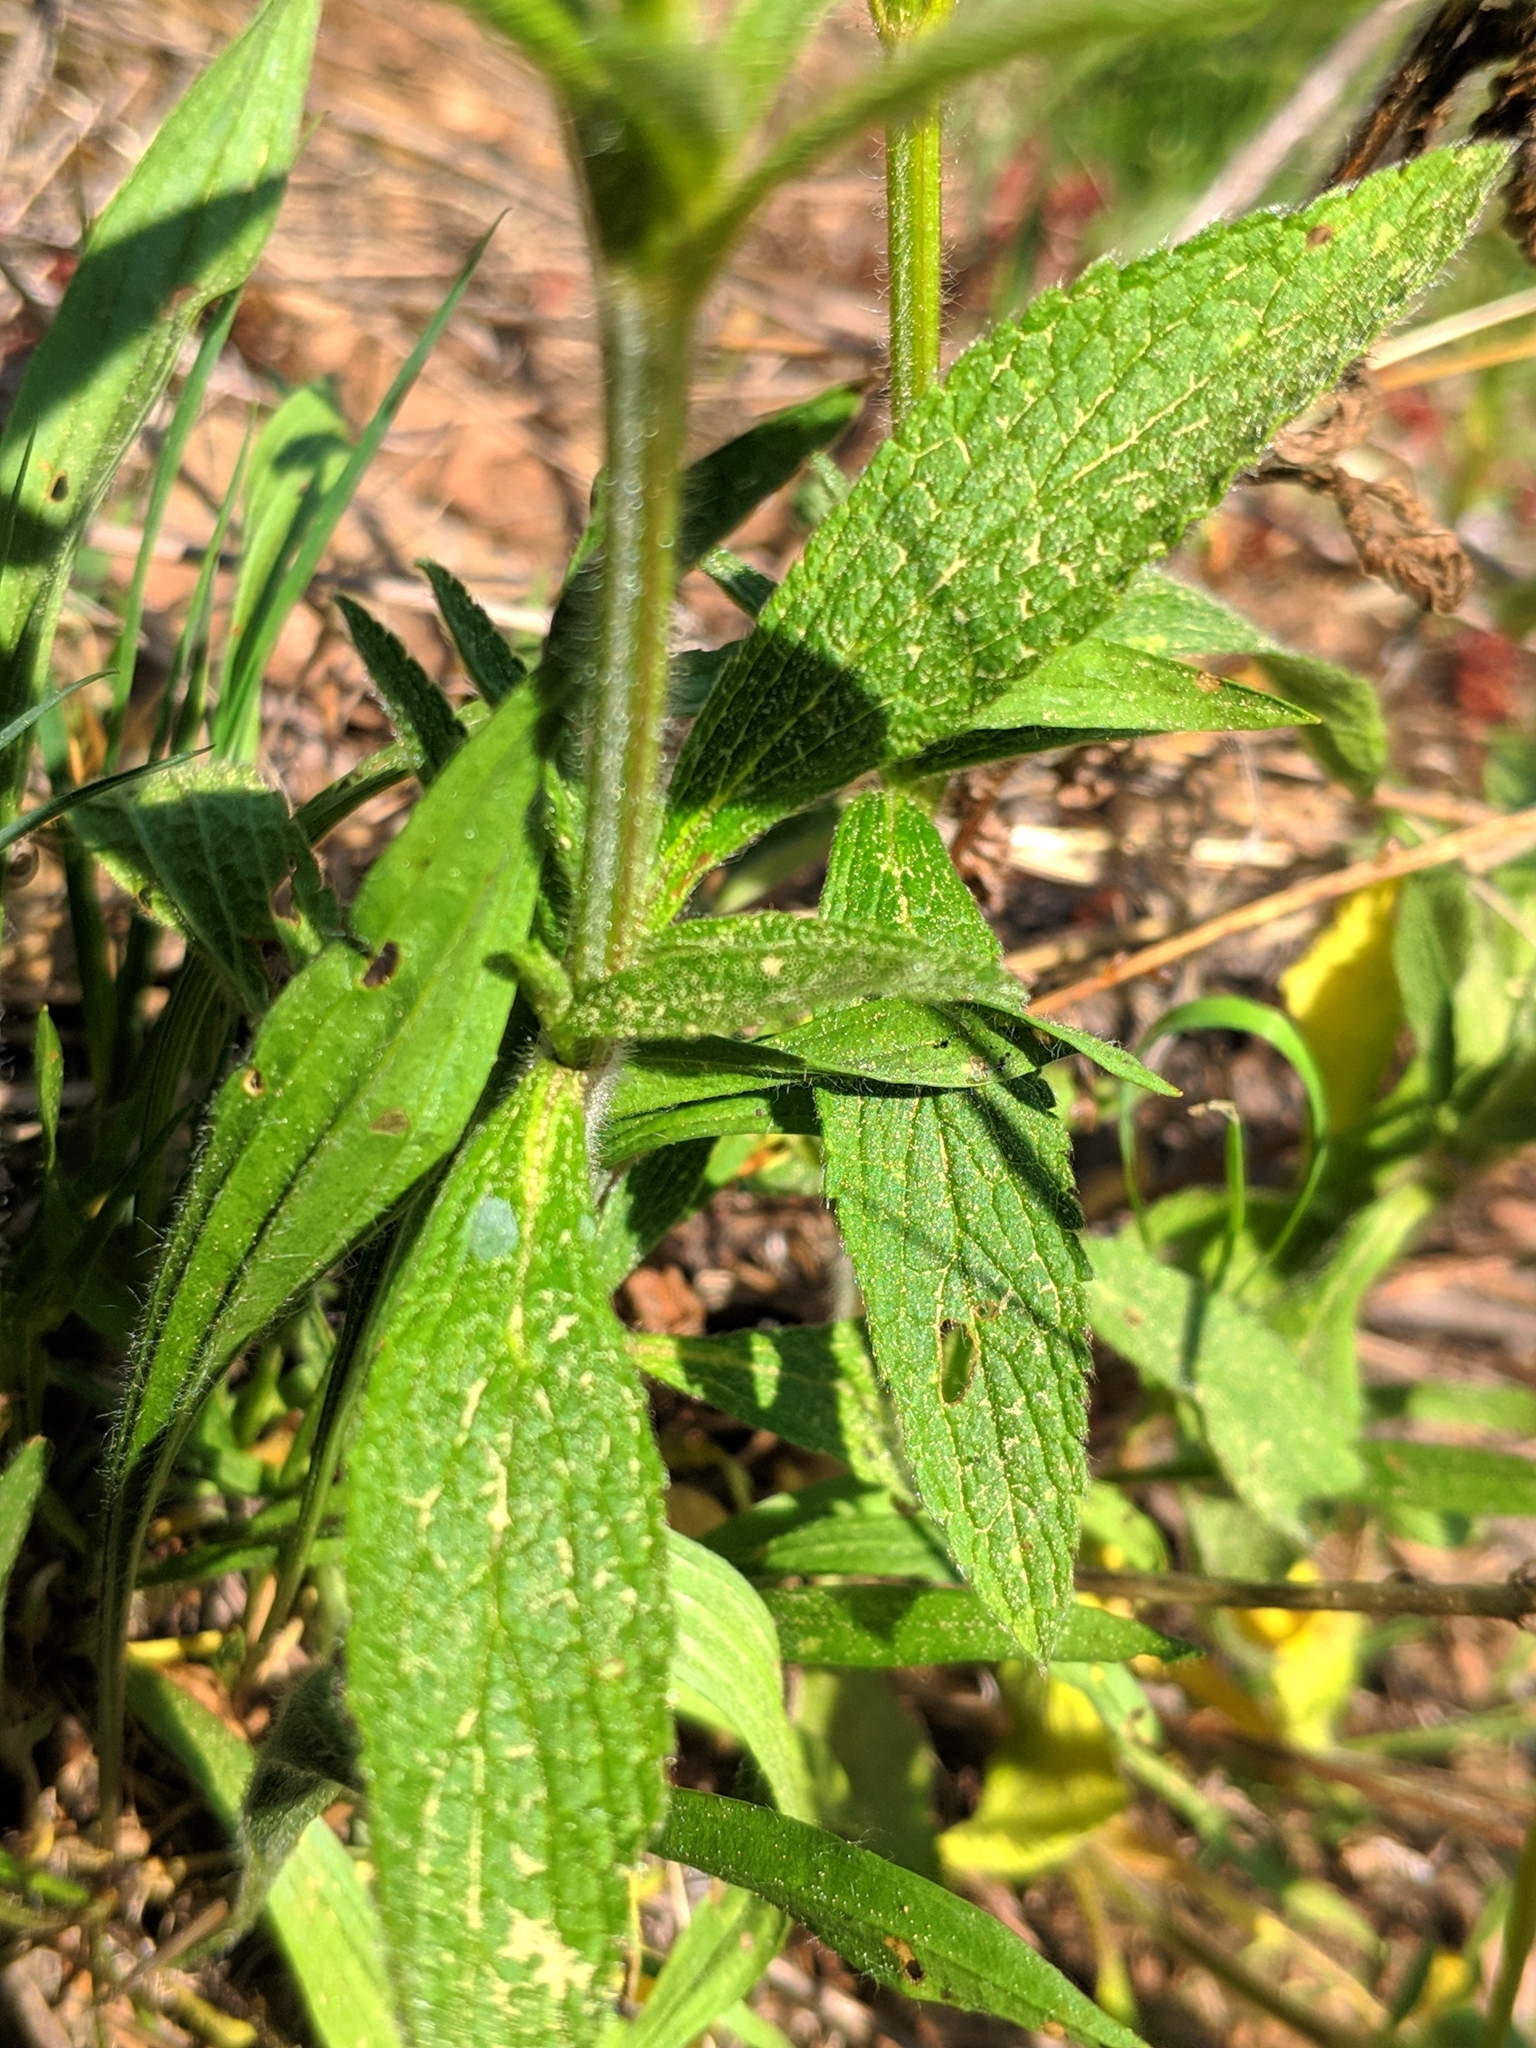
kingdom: Plantae
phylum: Tracheophyta
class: Magnoliopsida
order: Lamiales
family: Lamiaceae
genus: Stachys
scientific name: Stachys recta
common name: Perennial yellow-woundwort
